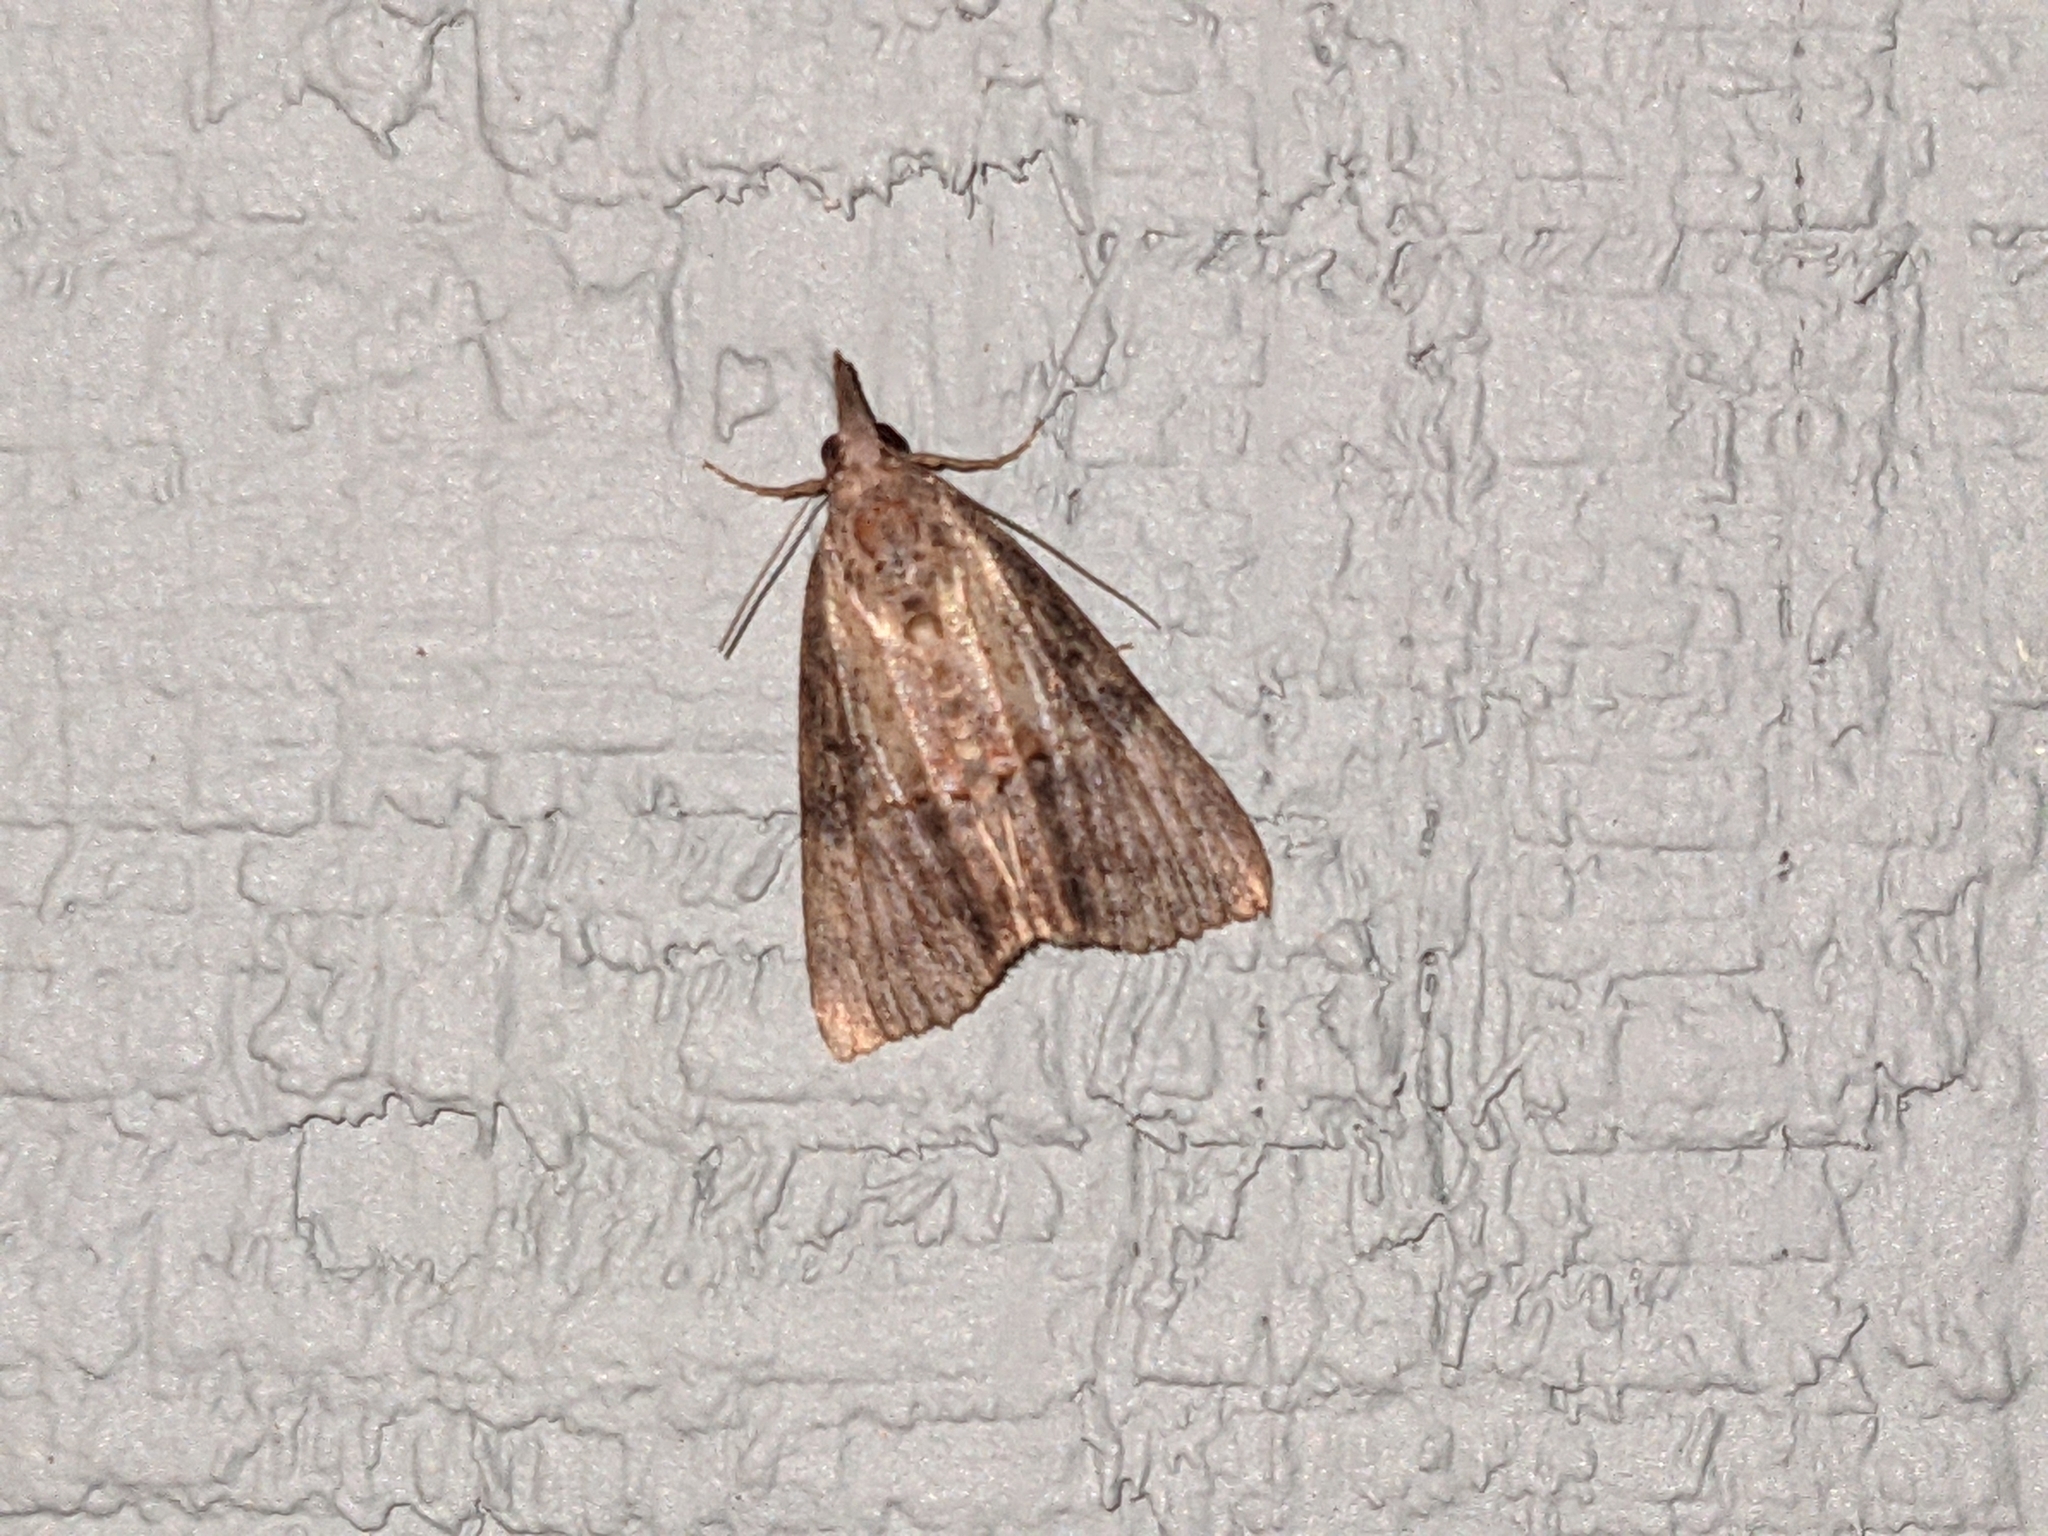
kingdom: Animalia
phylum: Arthropoda
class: Insecta
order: Lepidoptera
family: Erebidae
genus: Hypena
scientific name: Hypena scabra
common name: Green cloverworm
